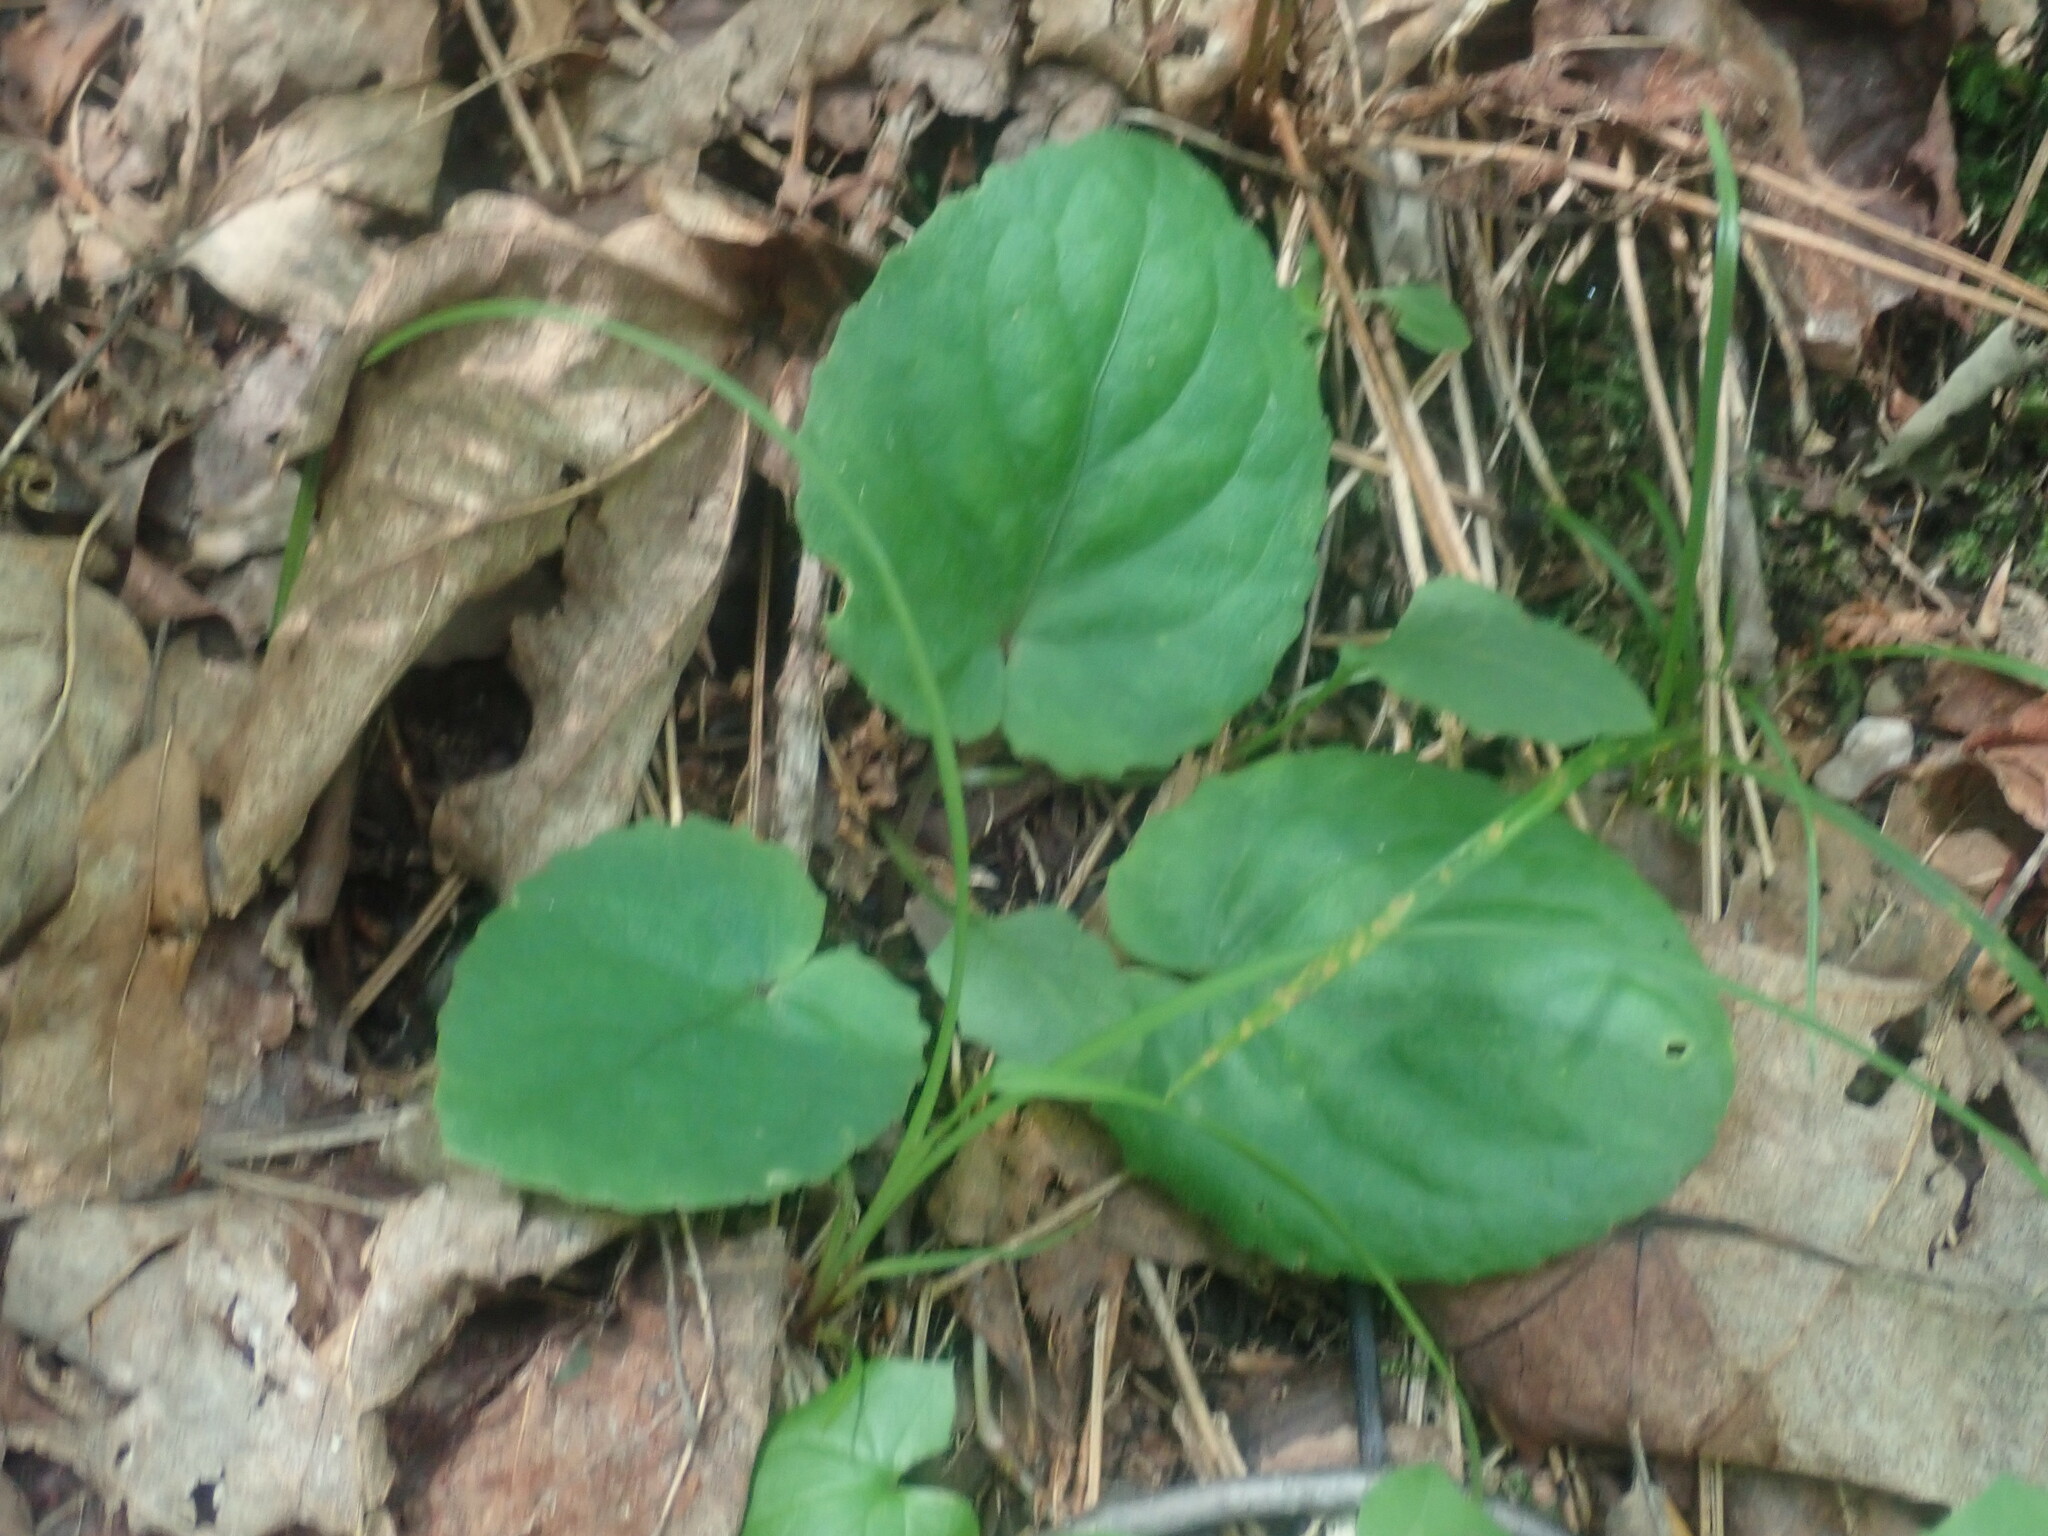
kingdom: Plantae
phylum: Tracheophyta
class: Magnoliopsida
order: Malpighiales
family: Violaceae
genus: Viola
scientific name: Viola rotundifolia
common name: Early yellow violet
